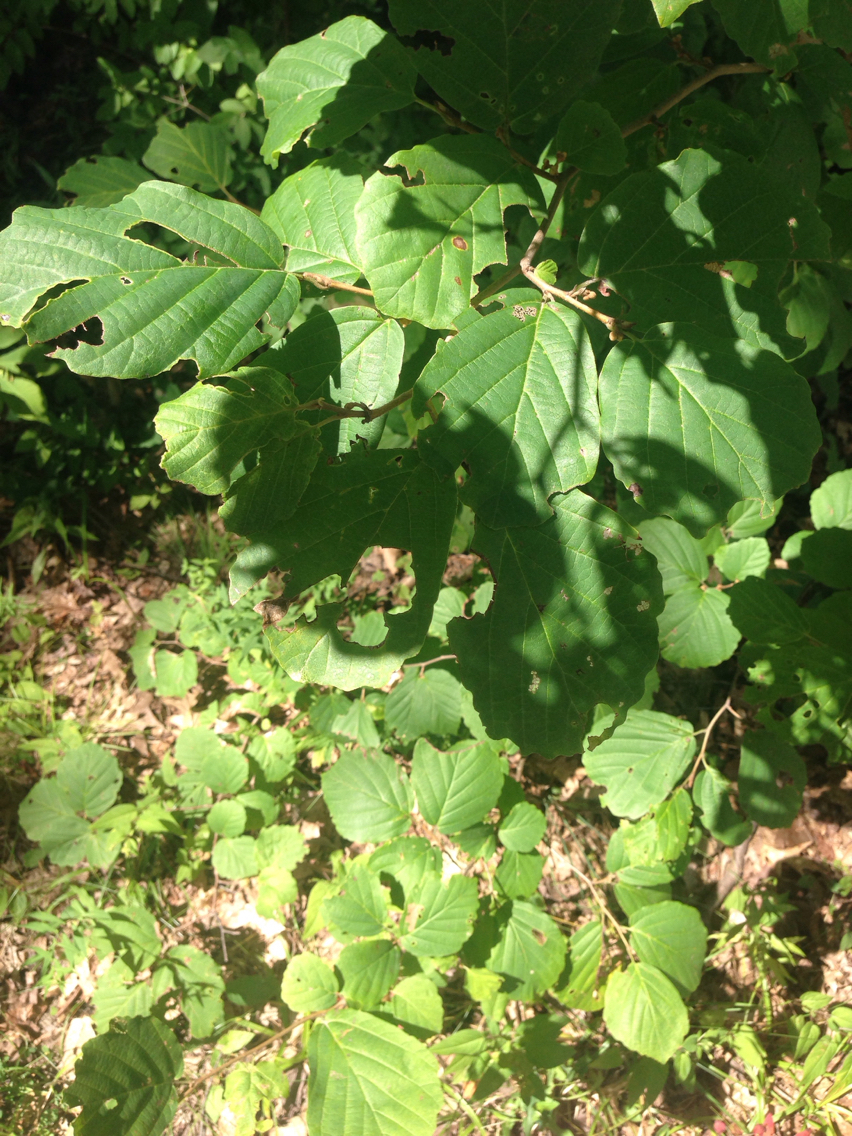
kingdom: Plantae
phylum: Tracheophyta
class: Magnoliopsida
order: Saxifragales
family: Hamamelidaceae
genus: Hamamelis
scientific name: Hamamelis virginiana
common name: Witch-hazel
